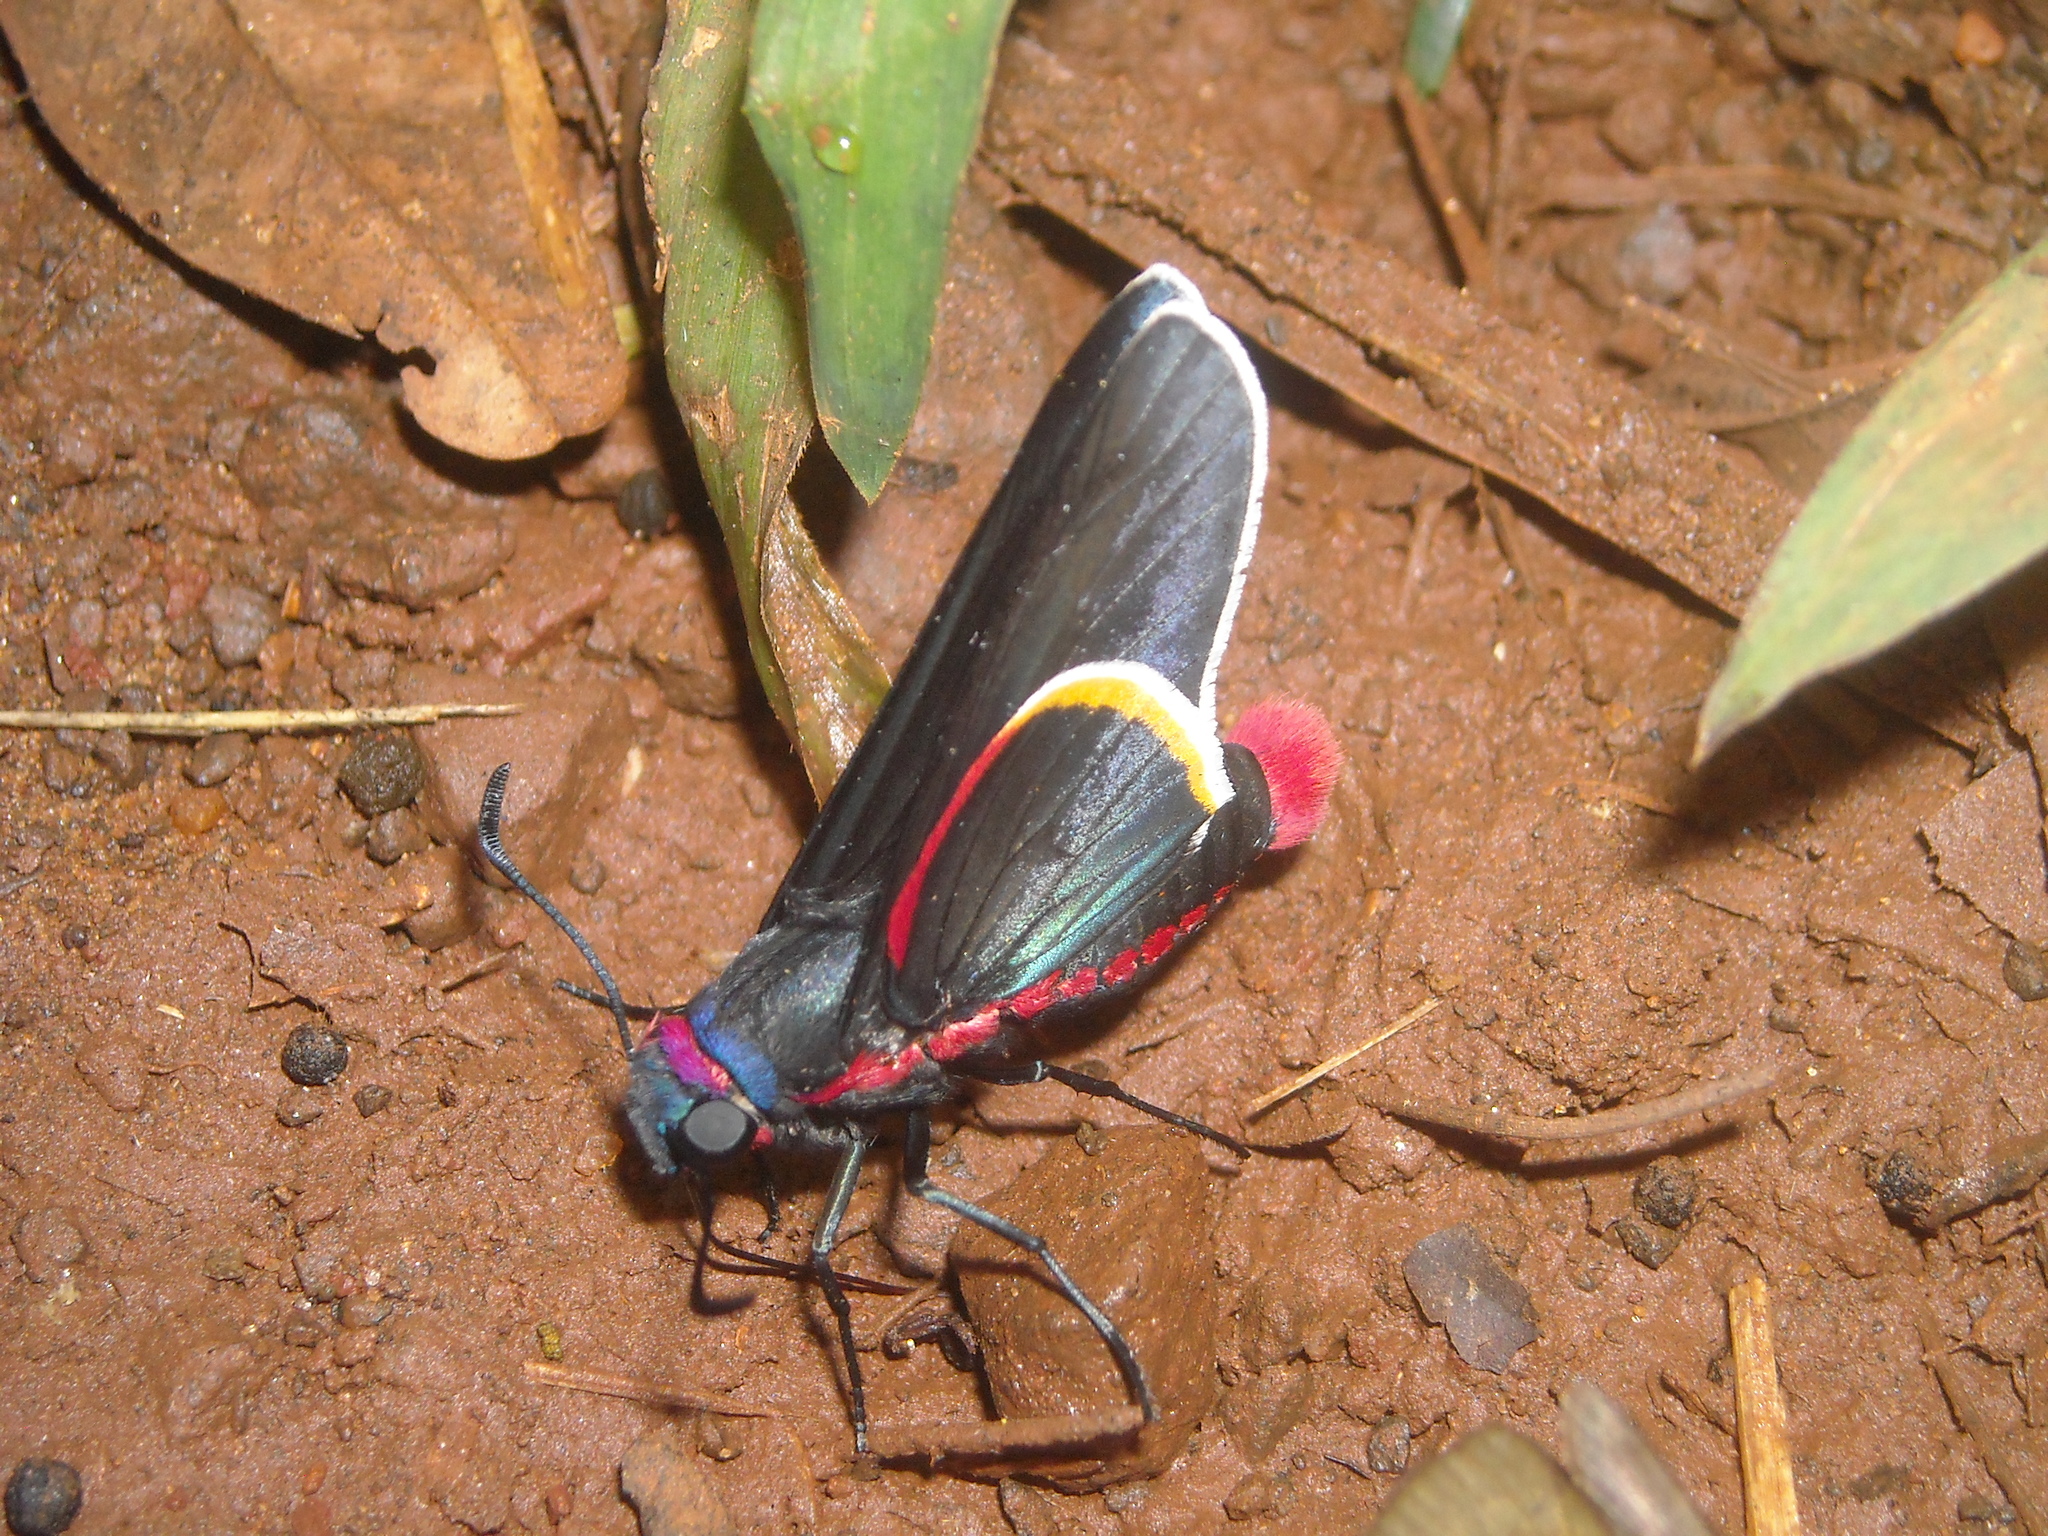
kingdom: Animalia
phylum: Arthropoda
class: Insecta
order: Lepidoptera
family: Hesperiidae
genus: Mysoria
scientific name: Mysoria barcastus
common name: Royal firetip
